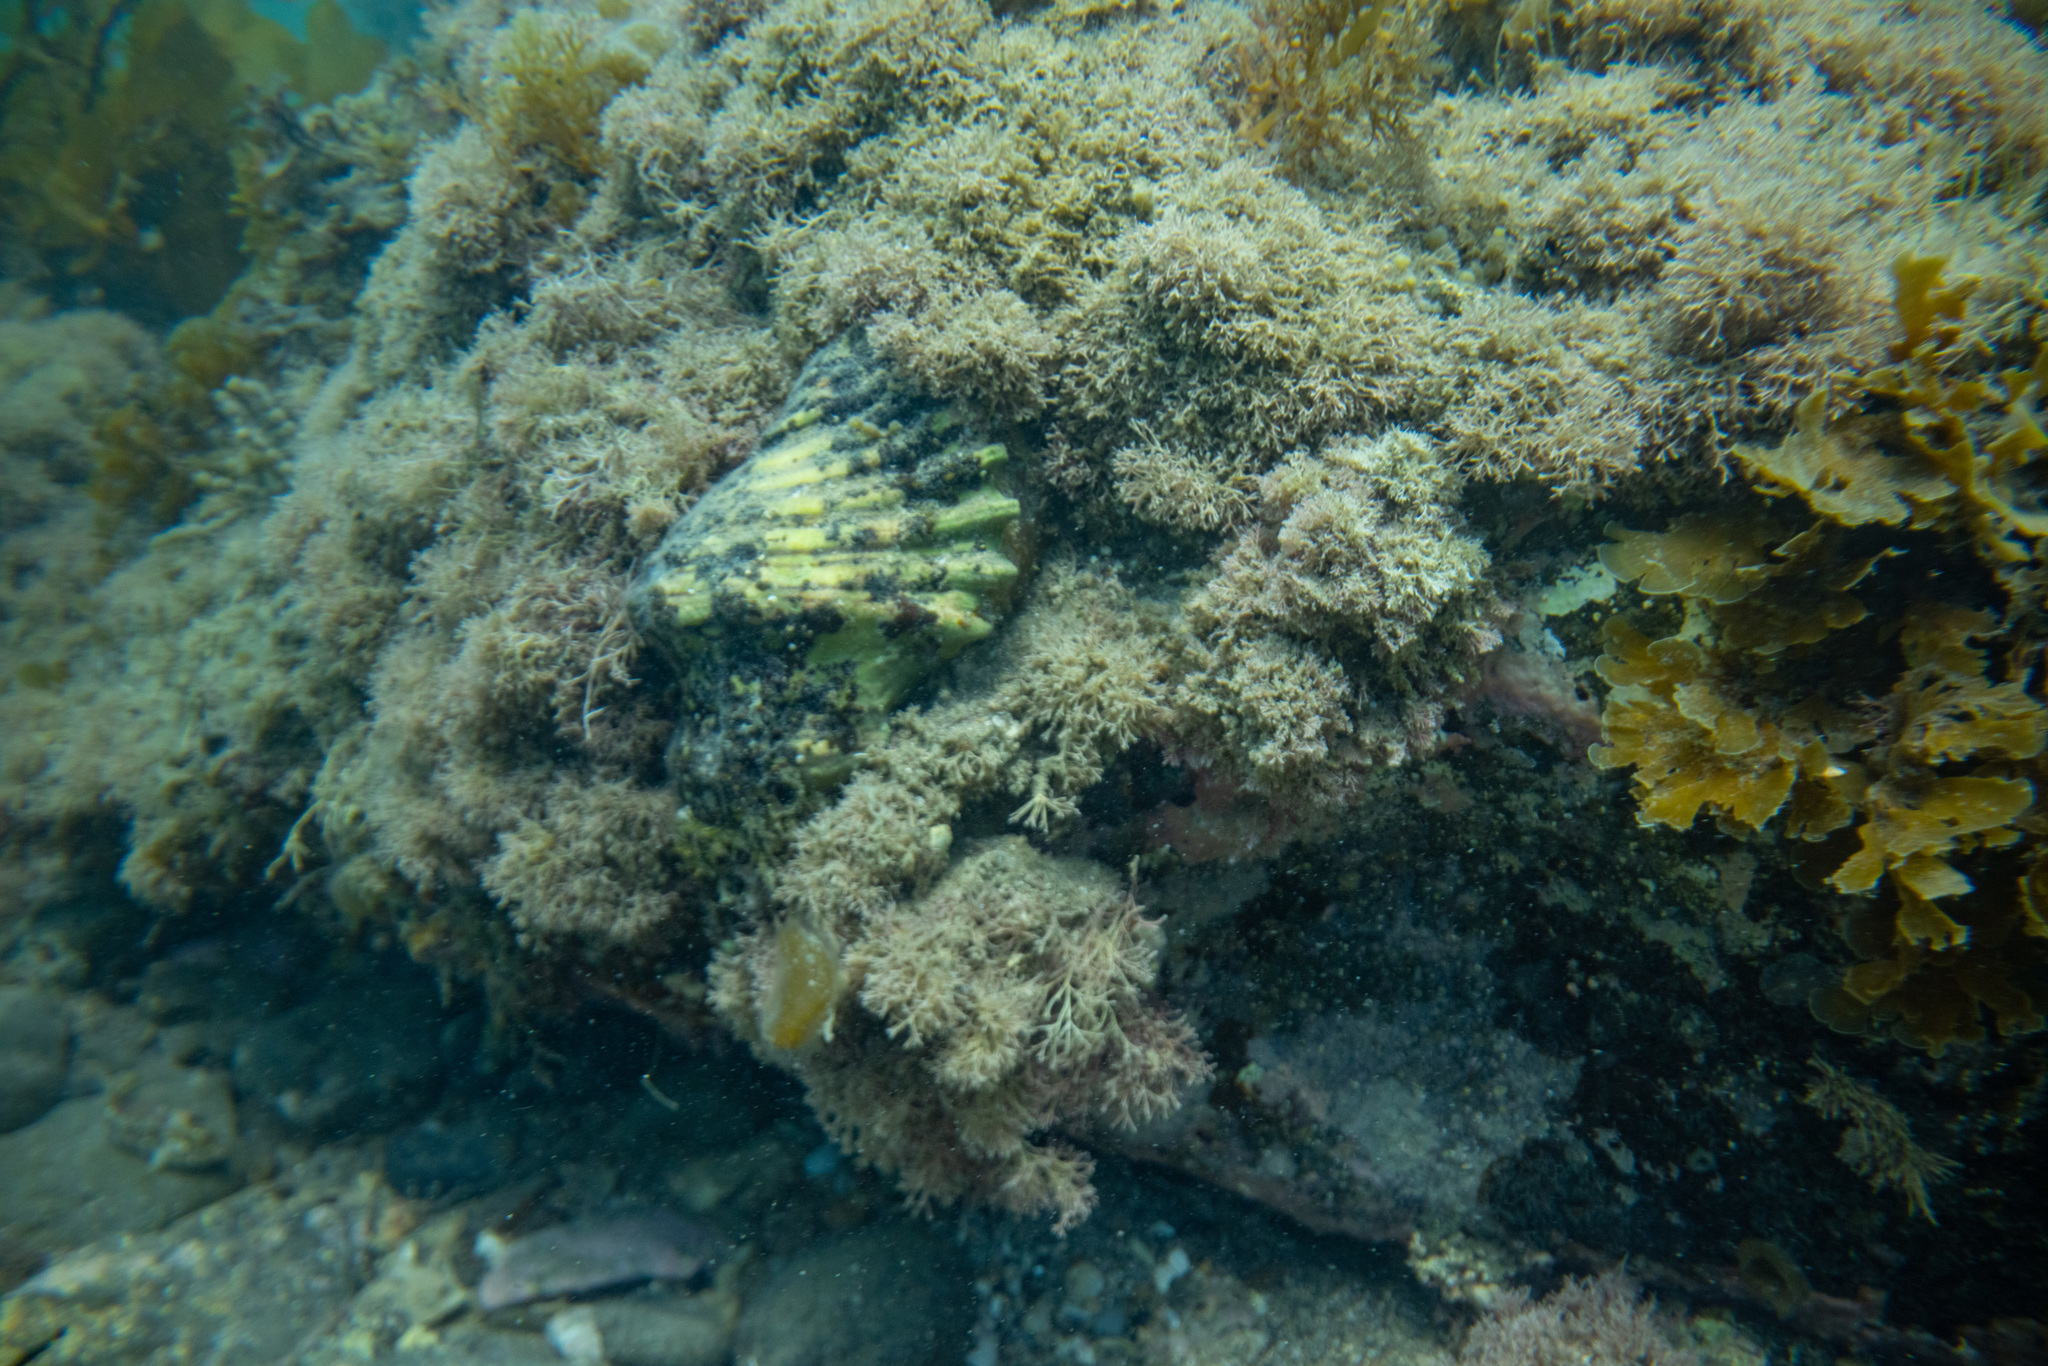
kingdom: Animalia
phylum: Mollusca
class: Gastropoda
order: Littorinimorpha
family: Cymatiidae
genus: Cabestana
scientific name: Cabestana spengleri
